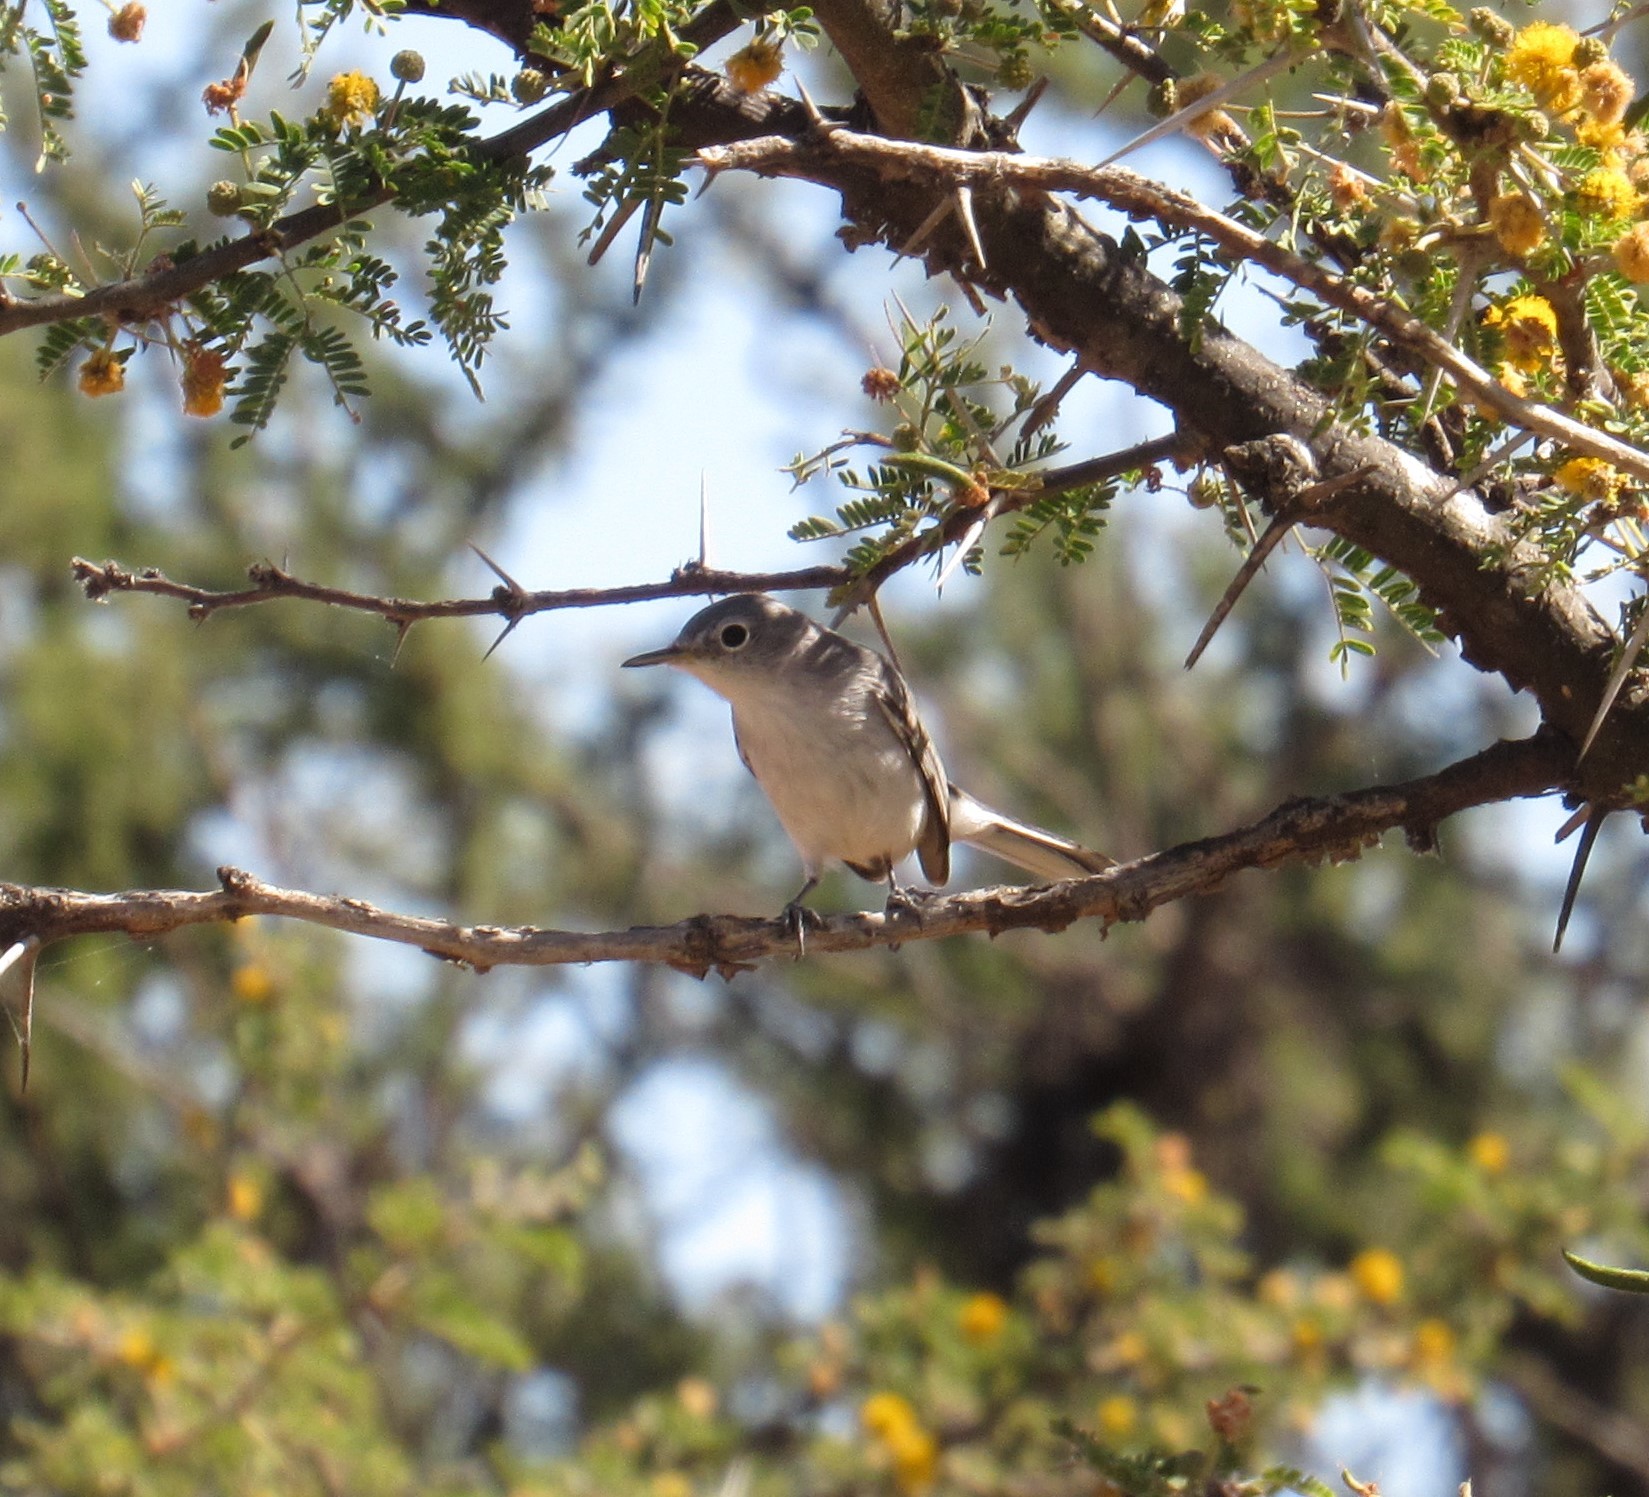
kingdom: Animalia
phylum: Chordata
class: Aves
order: Passeriformes
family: Polioptilidae
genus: Polioptila
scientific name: Polioptila caerulea
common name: Blue-gray gnatcatcher
